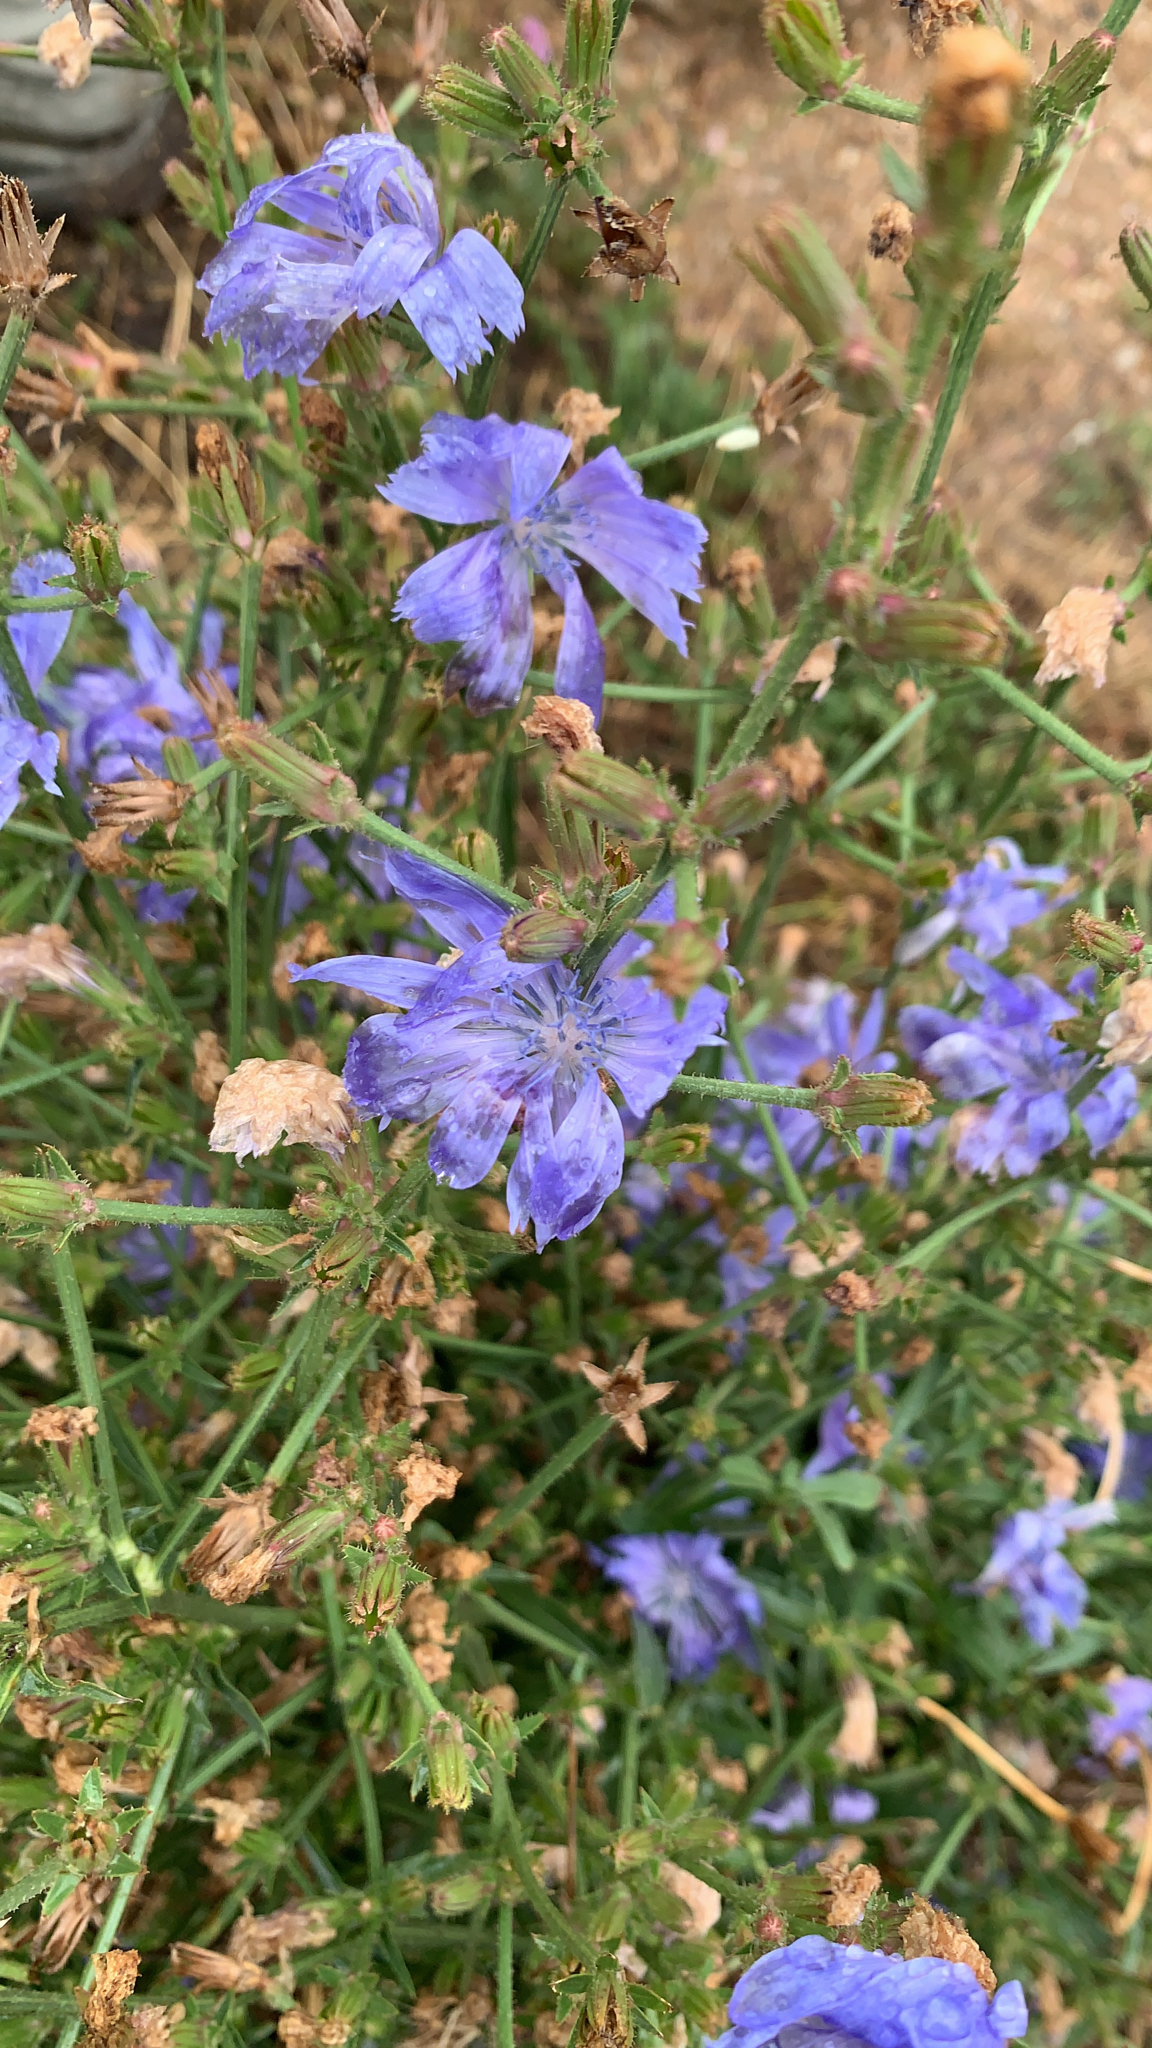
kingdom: Plantae
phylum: Tracheophyta
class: Magnoliopsida
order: Asterales
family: Asteraceae
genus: Cichorium
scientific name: Cichorium intybus
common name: Chicory
